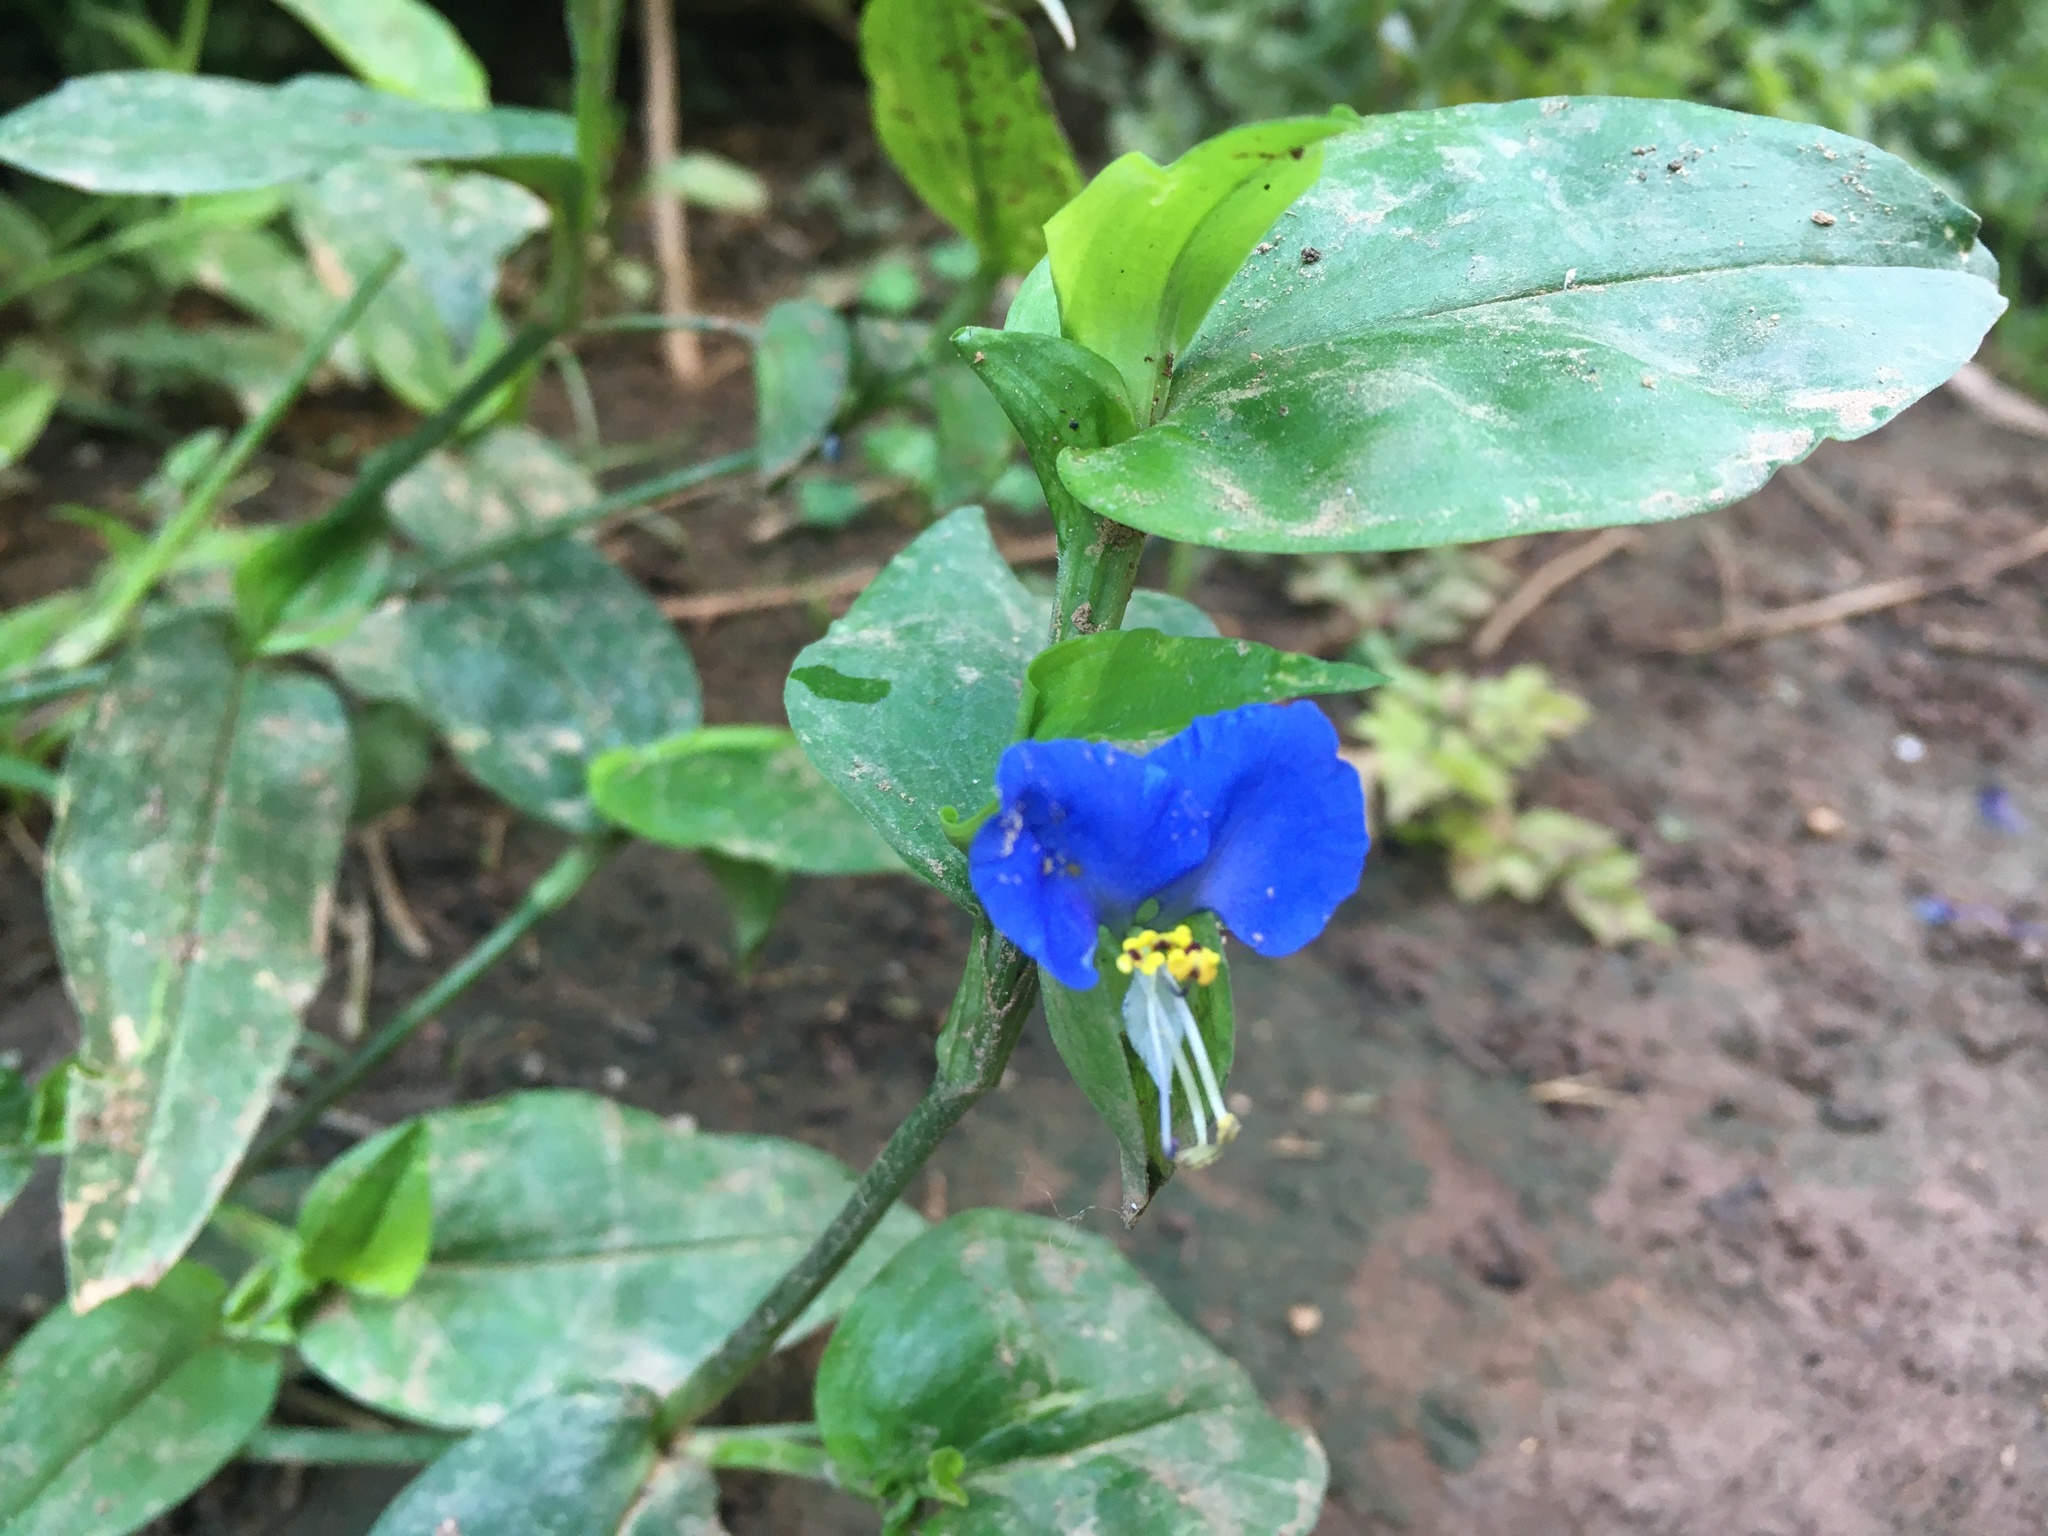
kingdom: Plantae
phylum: Tracheophyta
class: Liliopsida
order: Commelinales
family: Commelinaceae
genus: Commelina
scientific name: Commelina communis
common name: Asiatic dayflower
